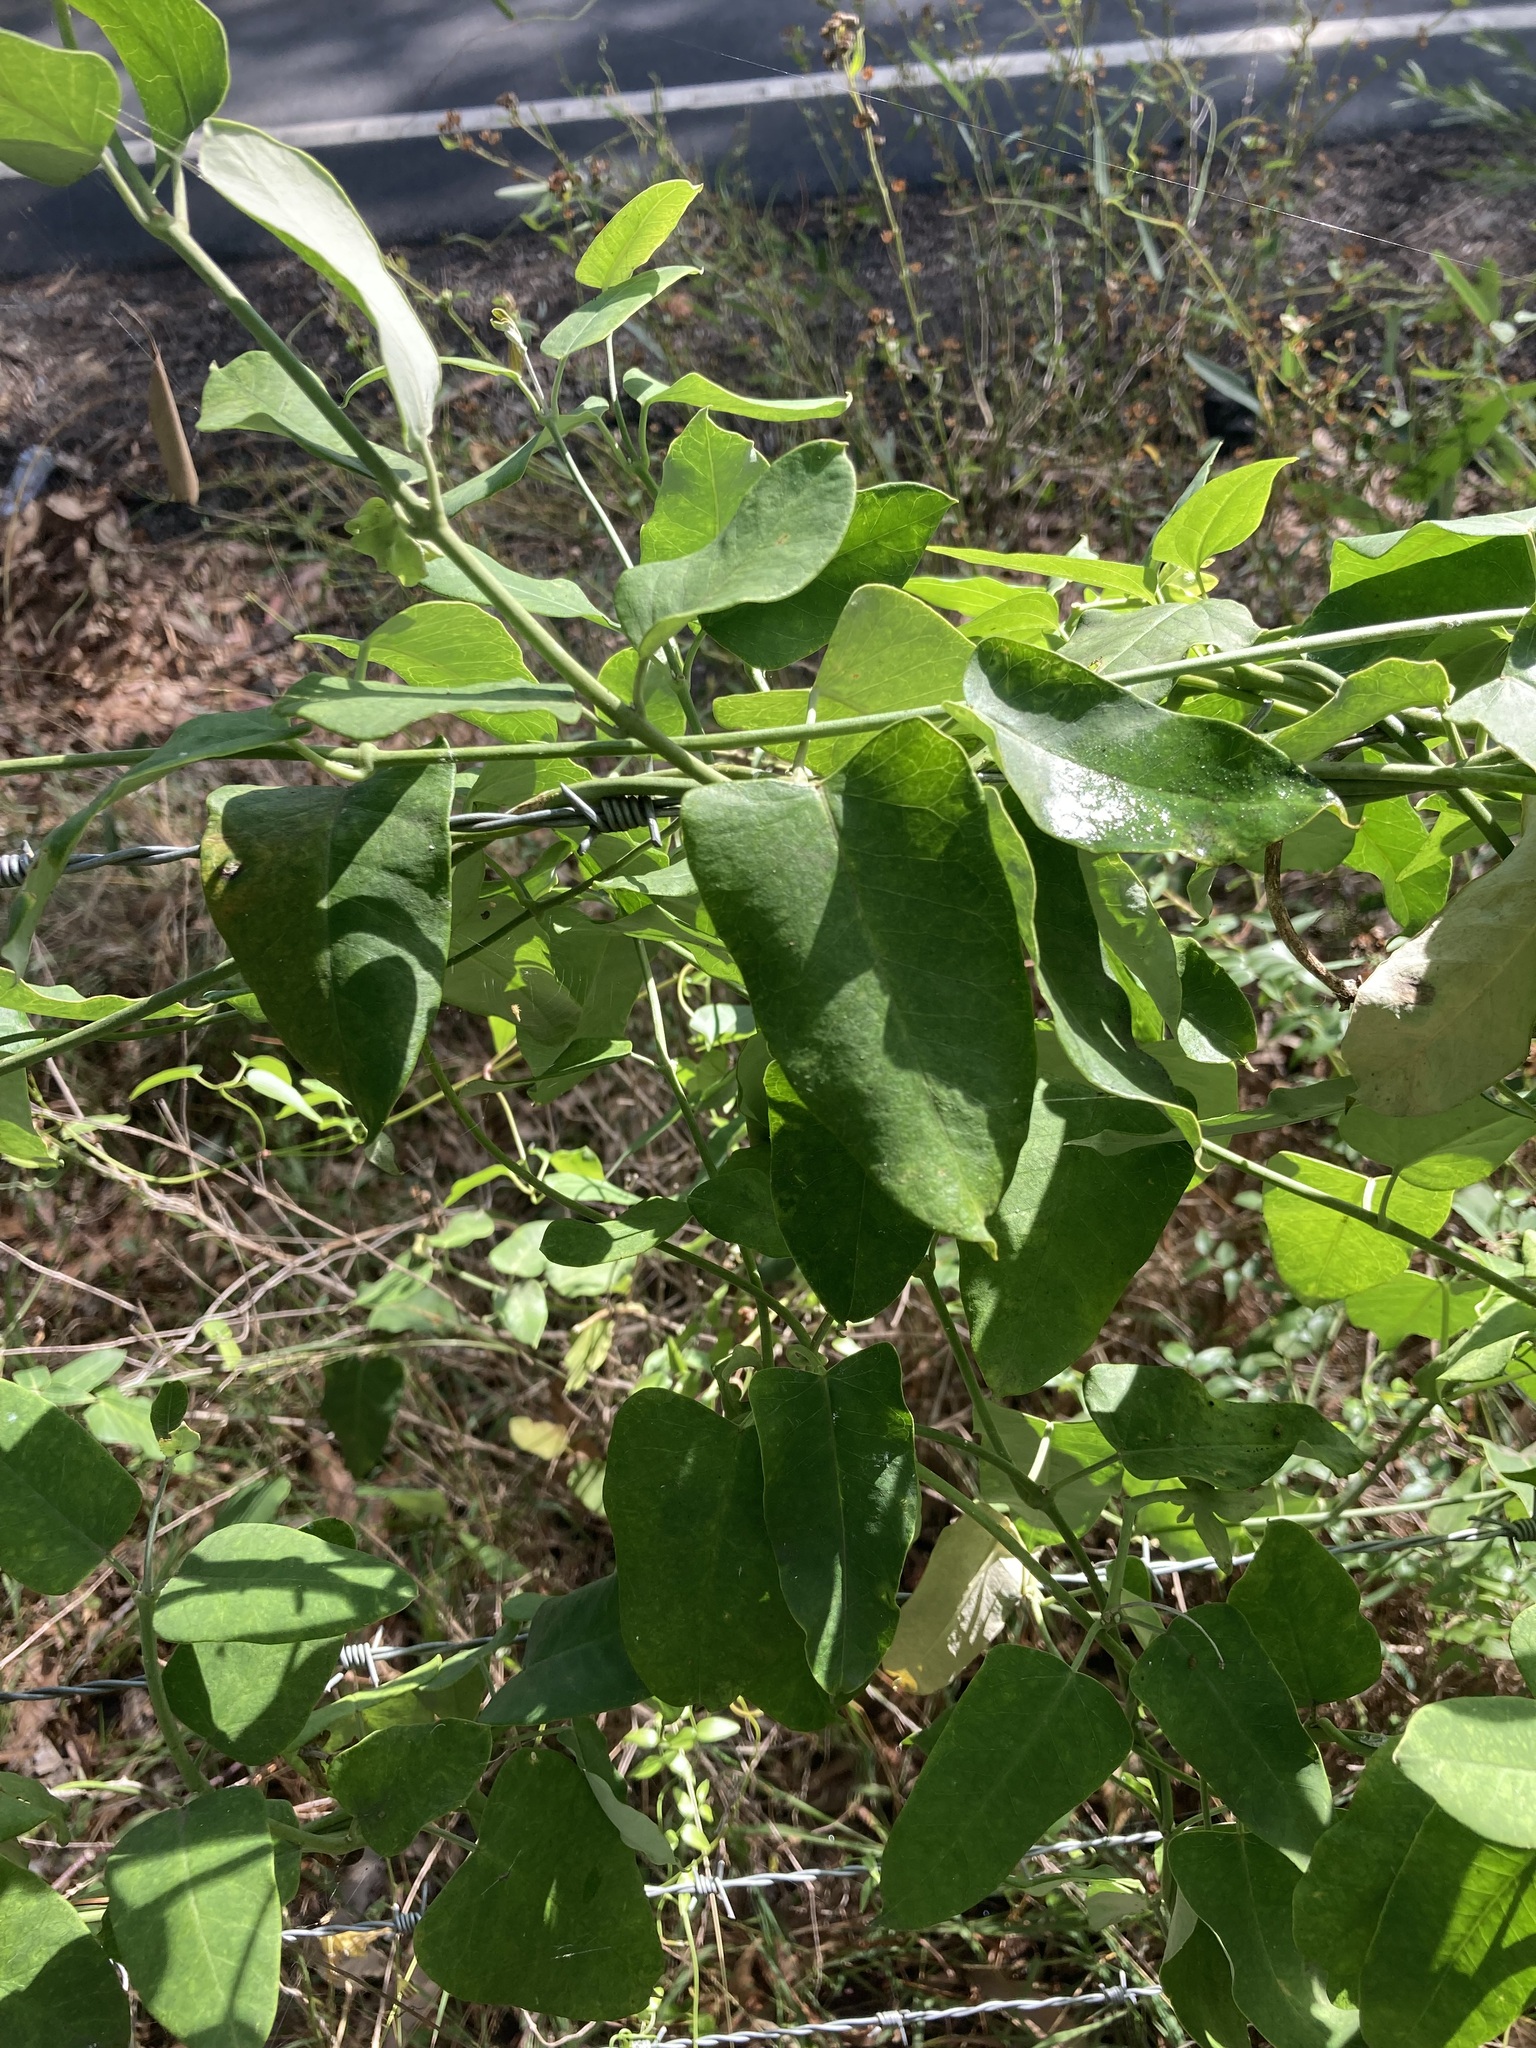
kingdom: Plantae
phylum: Tracheophyta
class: Magnoliopsida
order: Gentianales
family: Apocynaceae
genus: Araujia
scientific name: Araujia sericifera
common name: White bladderflower
